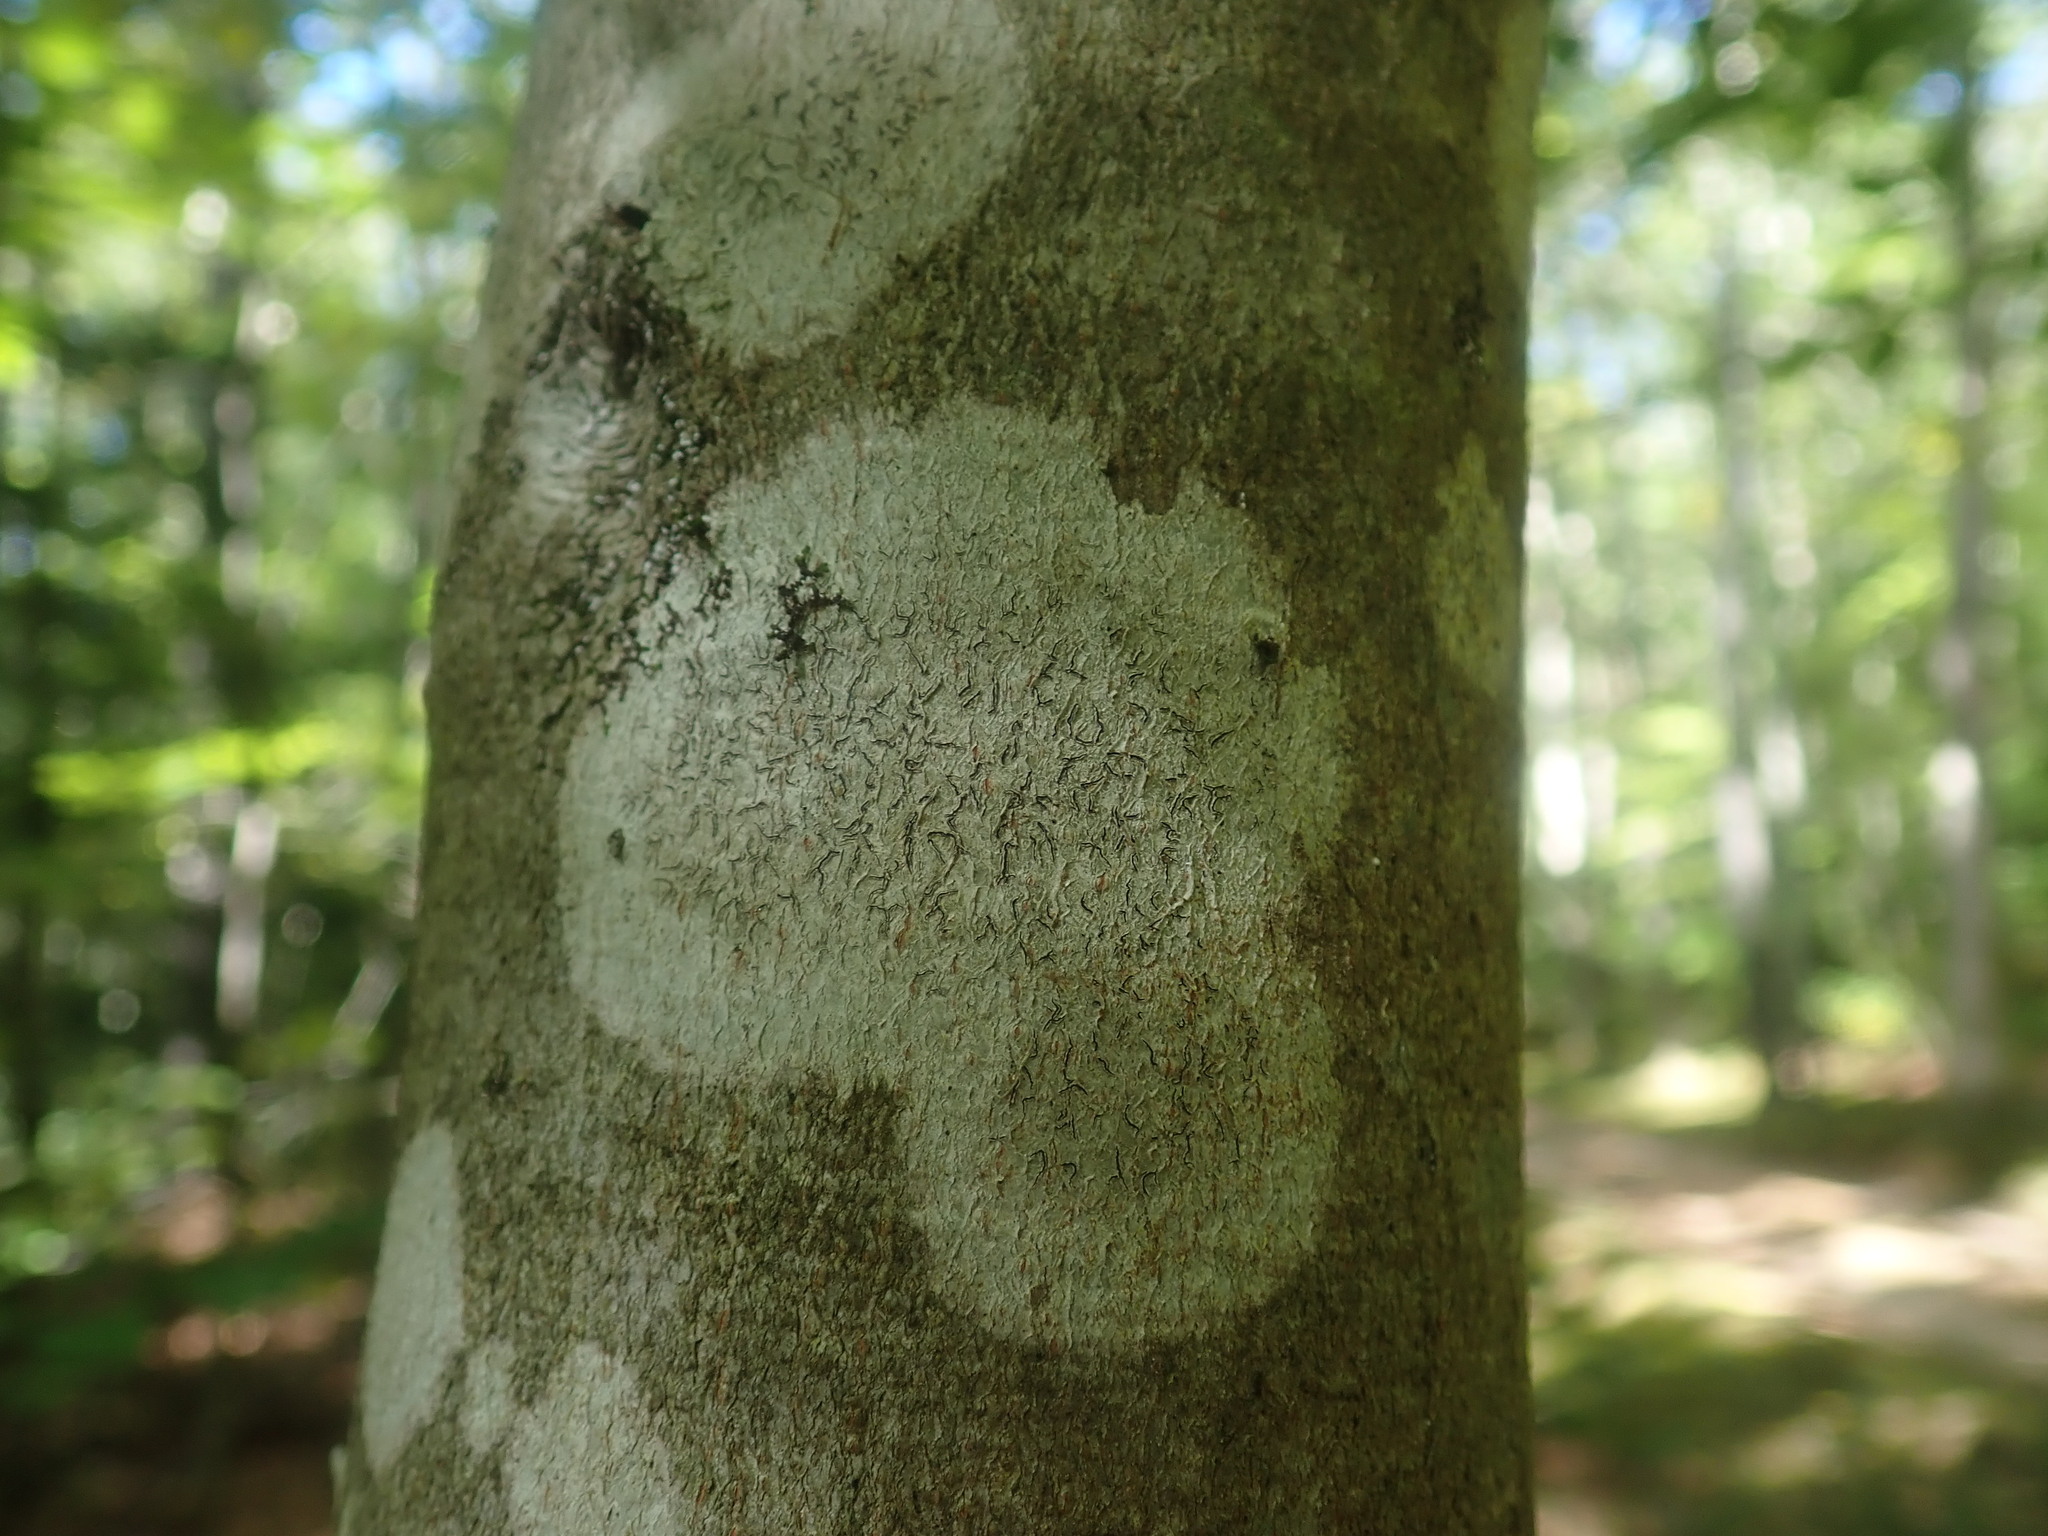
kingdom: Fungi
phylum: Ascomycota
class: Lecanoromycetes
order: Ostropales
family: Graphidaceae
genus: Graphis
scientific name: Graphis scripta
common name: Script lichen
